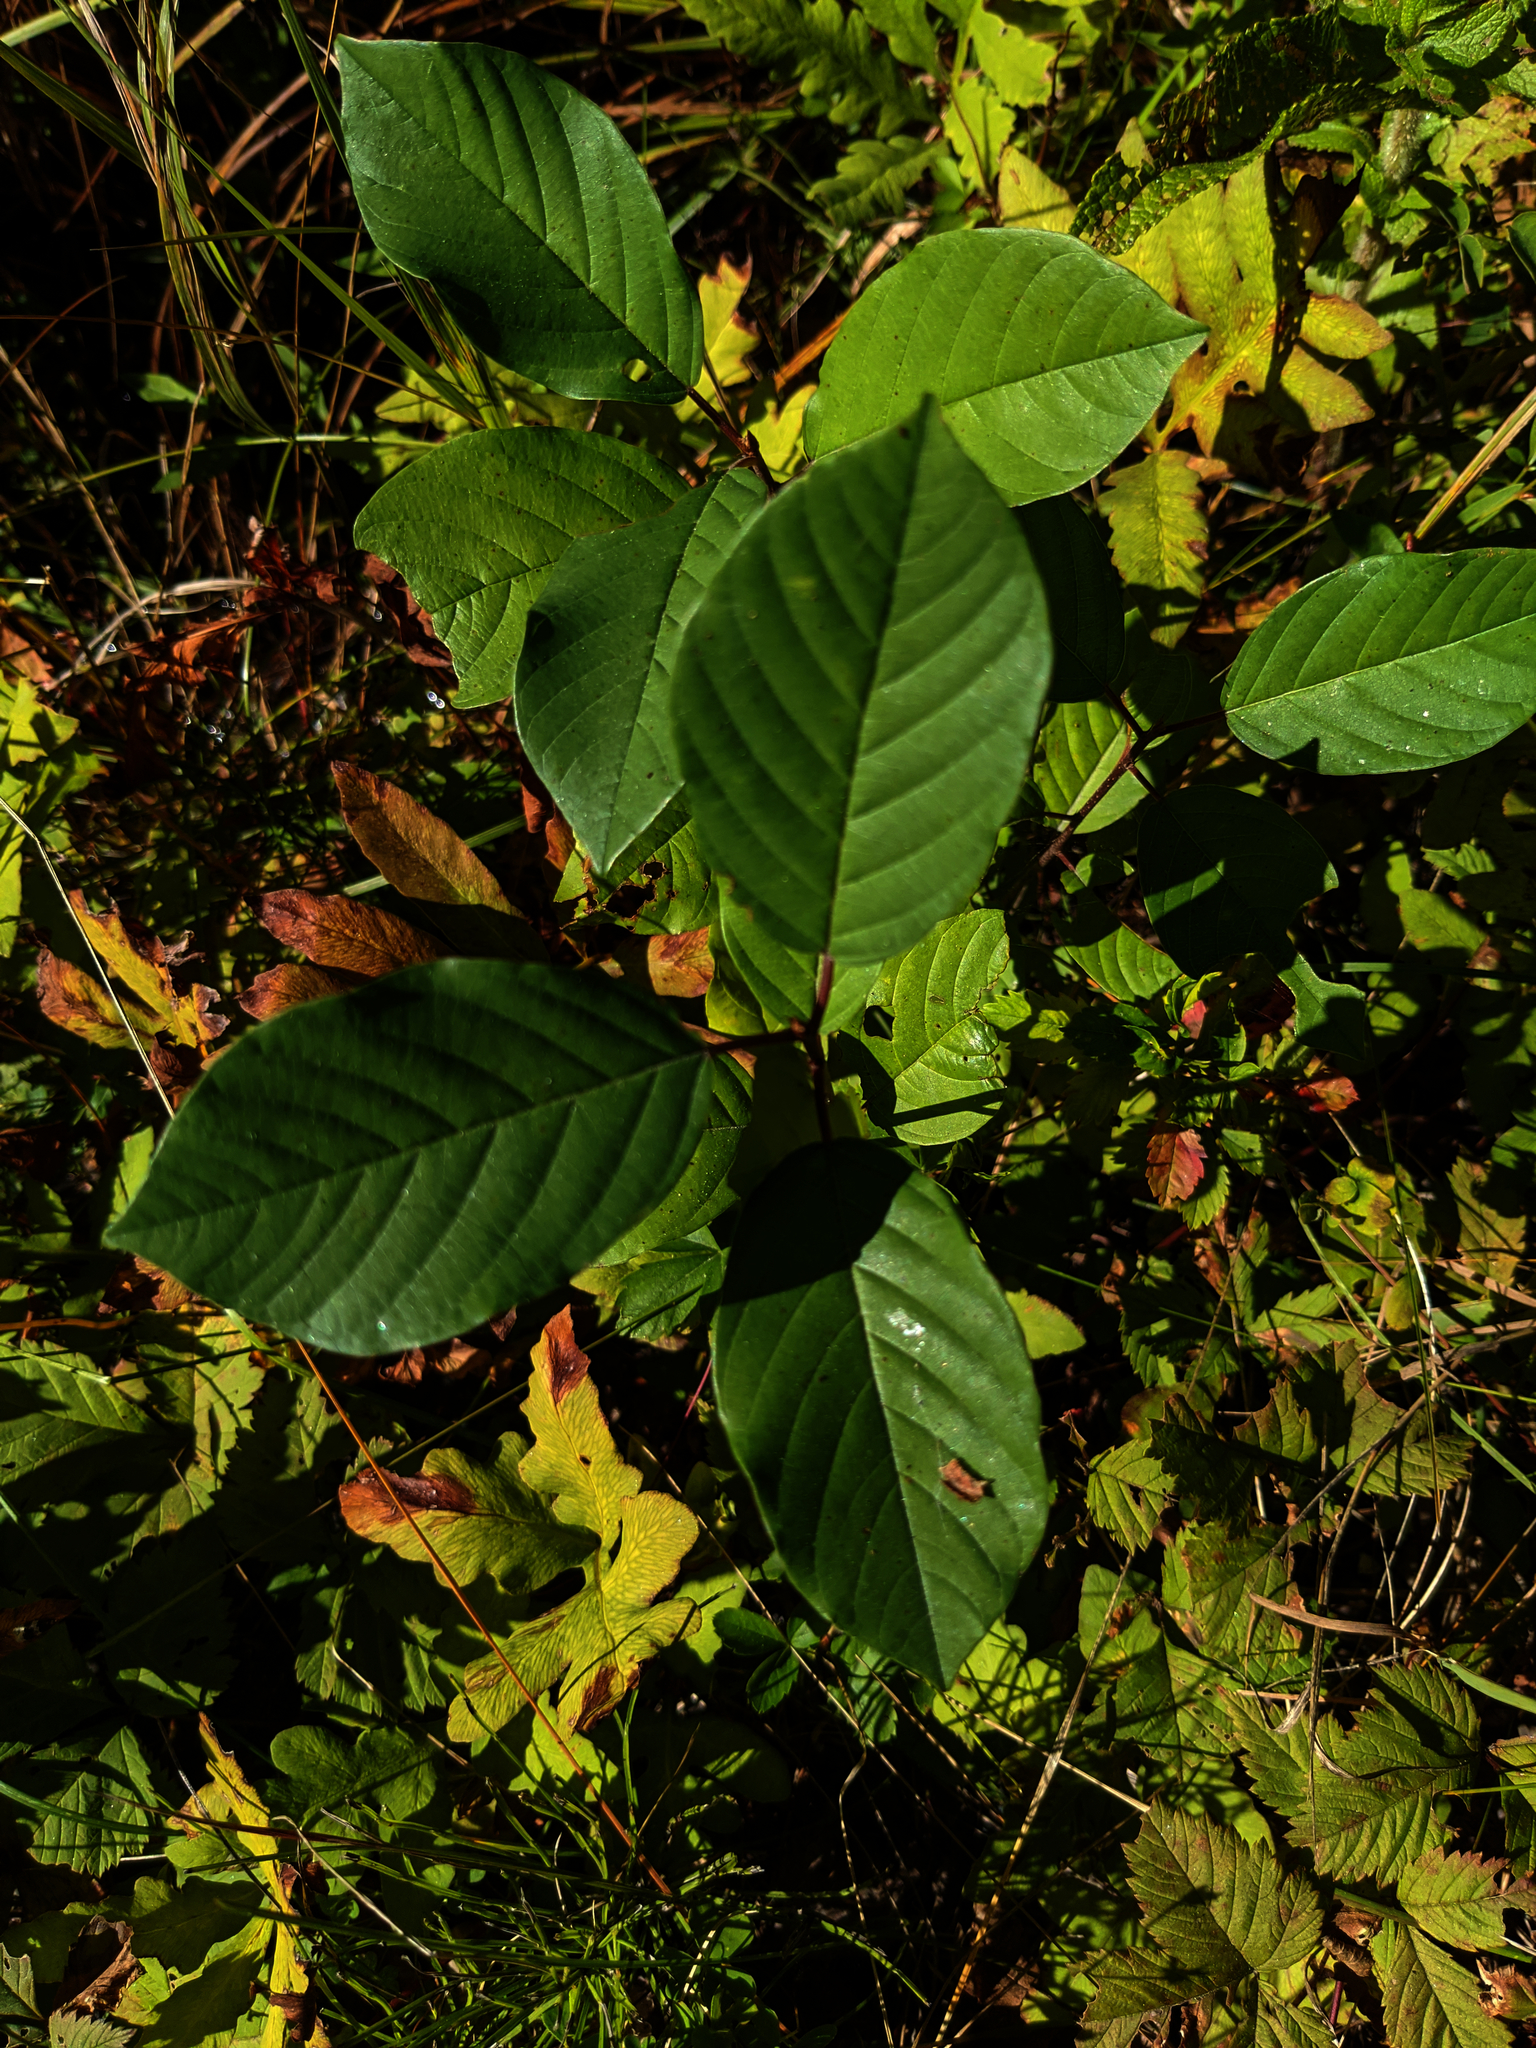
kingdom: Plantae
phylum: Tracheophyta
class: Magnoliopsida
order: Rosales
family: Rhamnaceae
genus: Frangula
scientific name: Frangula alnus
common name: Alder buckthorn
